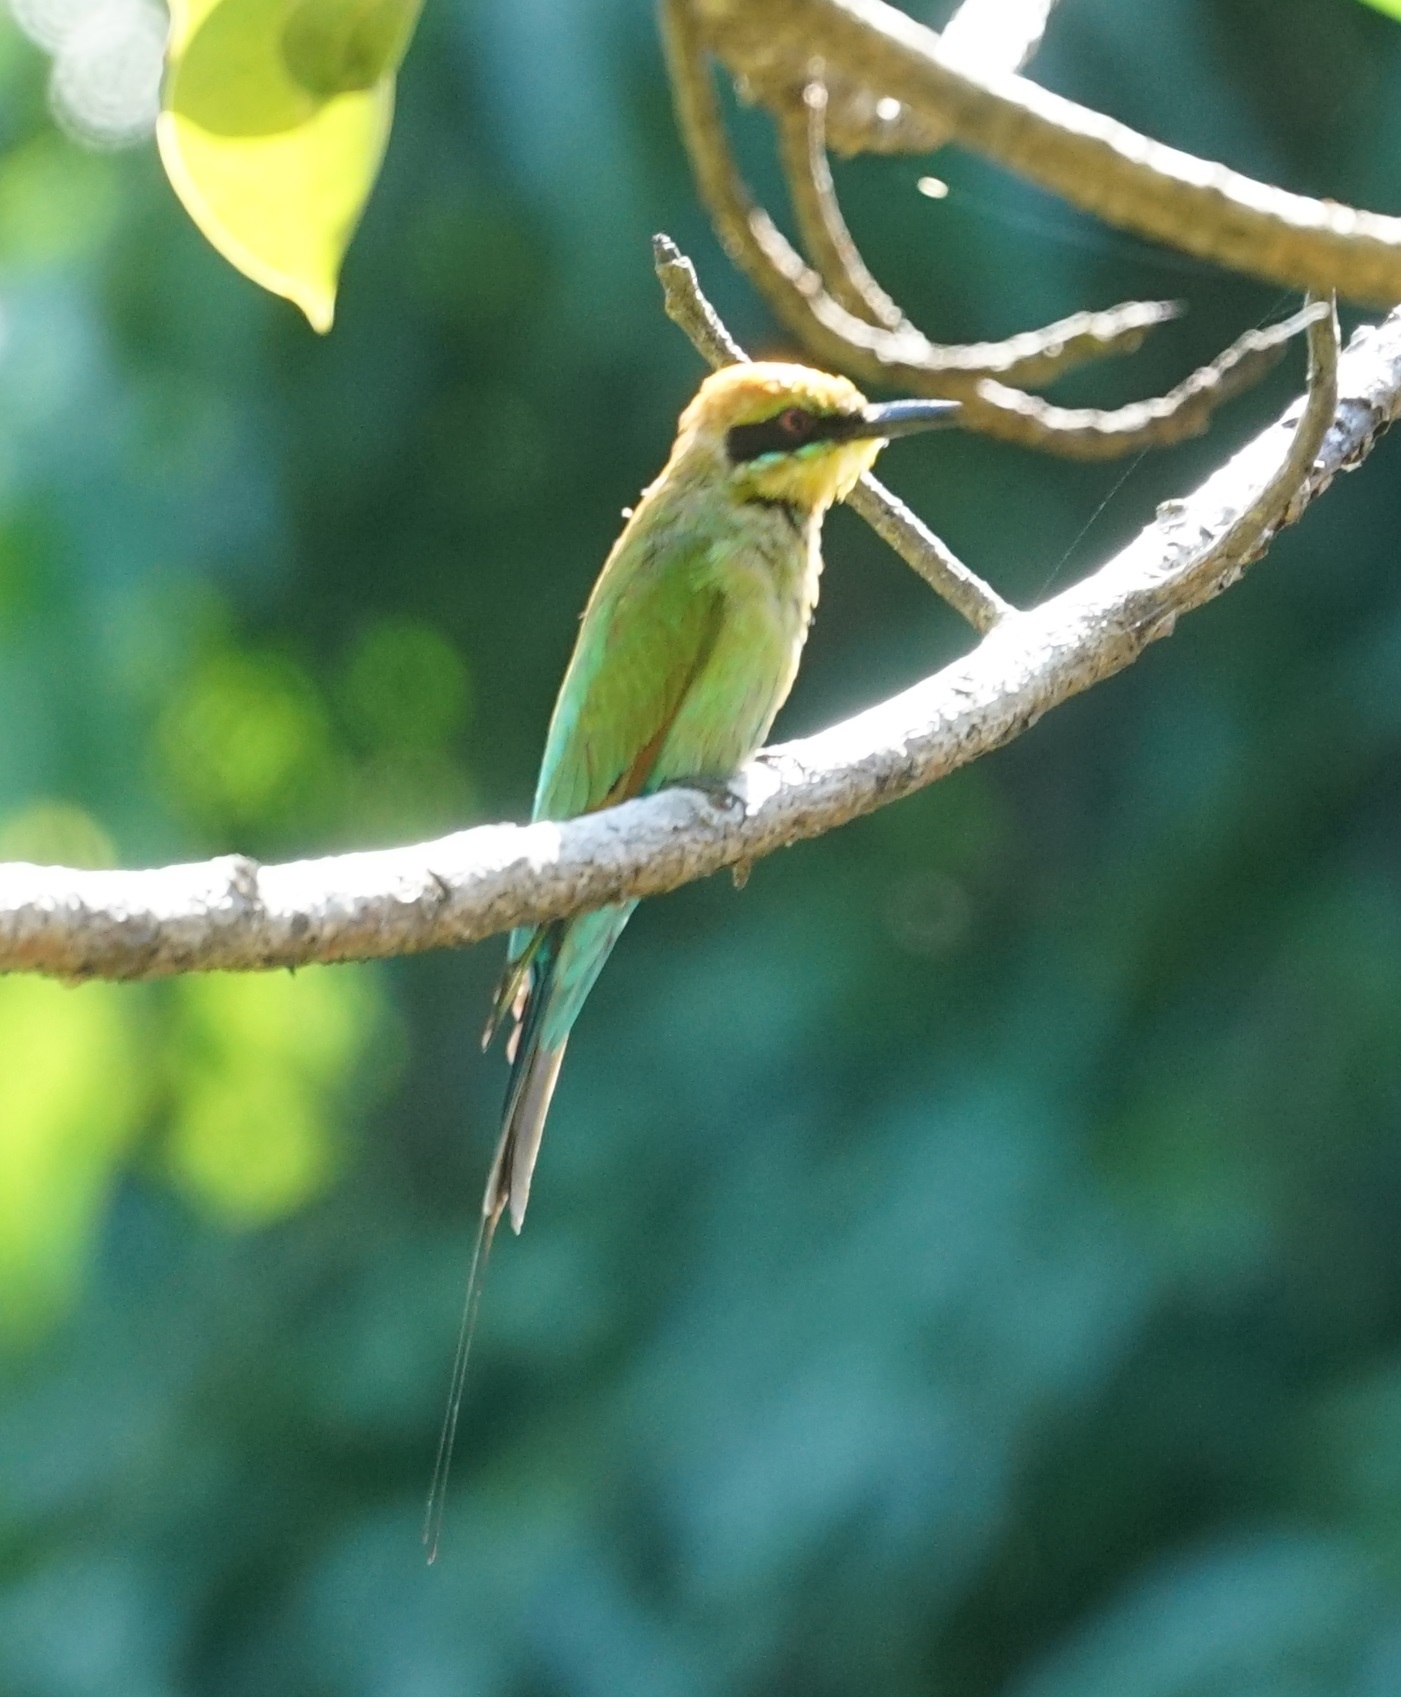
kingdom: Animalia
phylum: Chordata
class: Aves
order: Coraciiformes
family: Meropidae
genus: Merops
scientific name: Merops ornatus
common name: Rainbow bee-eater
